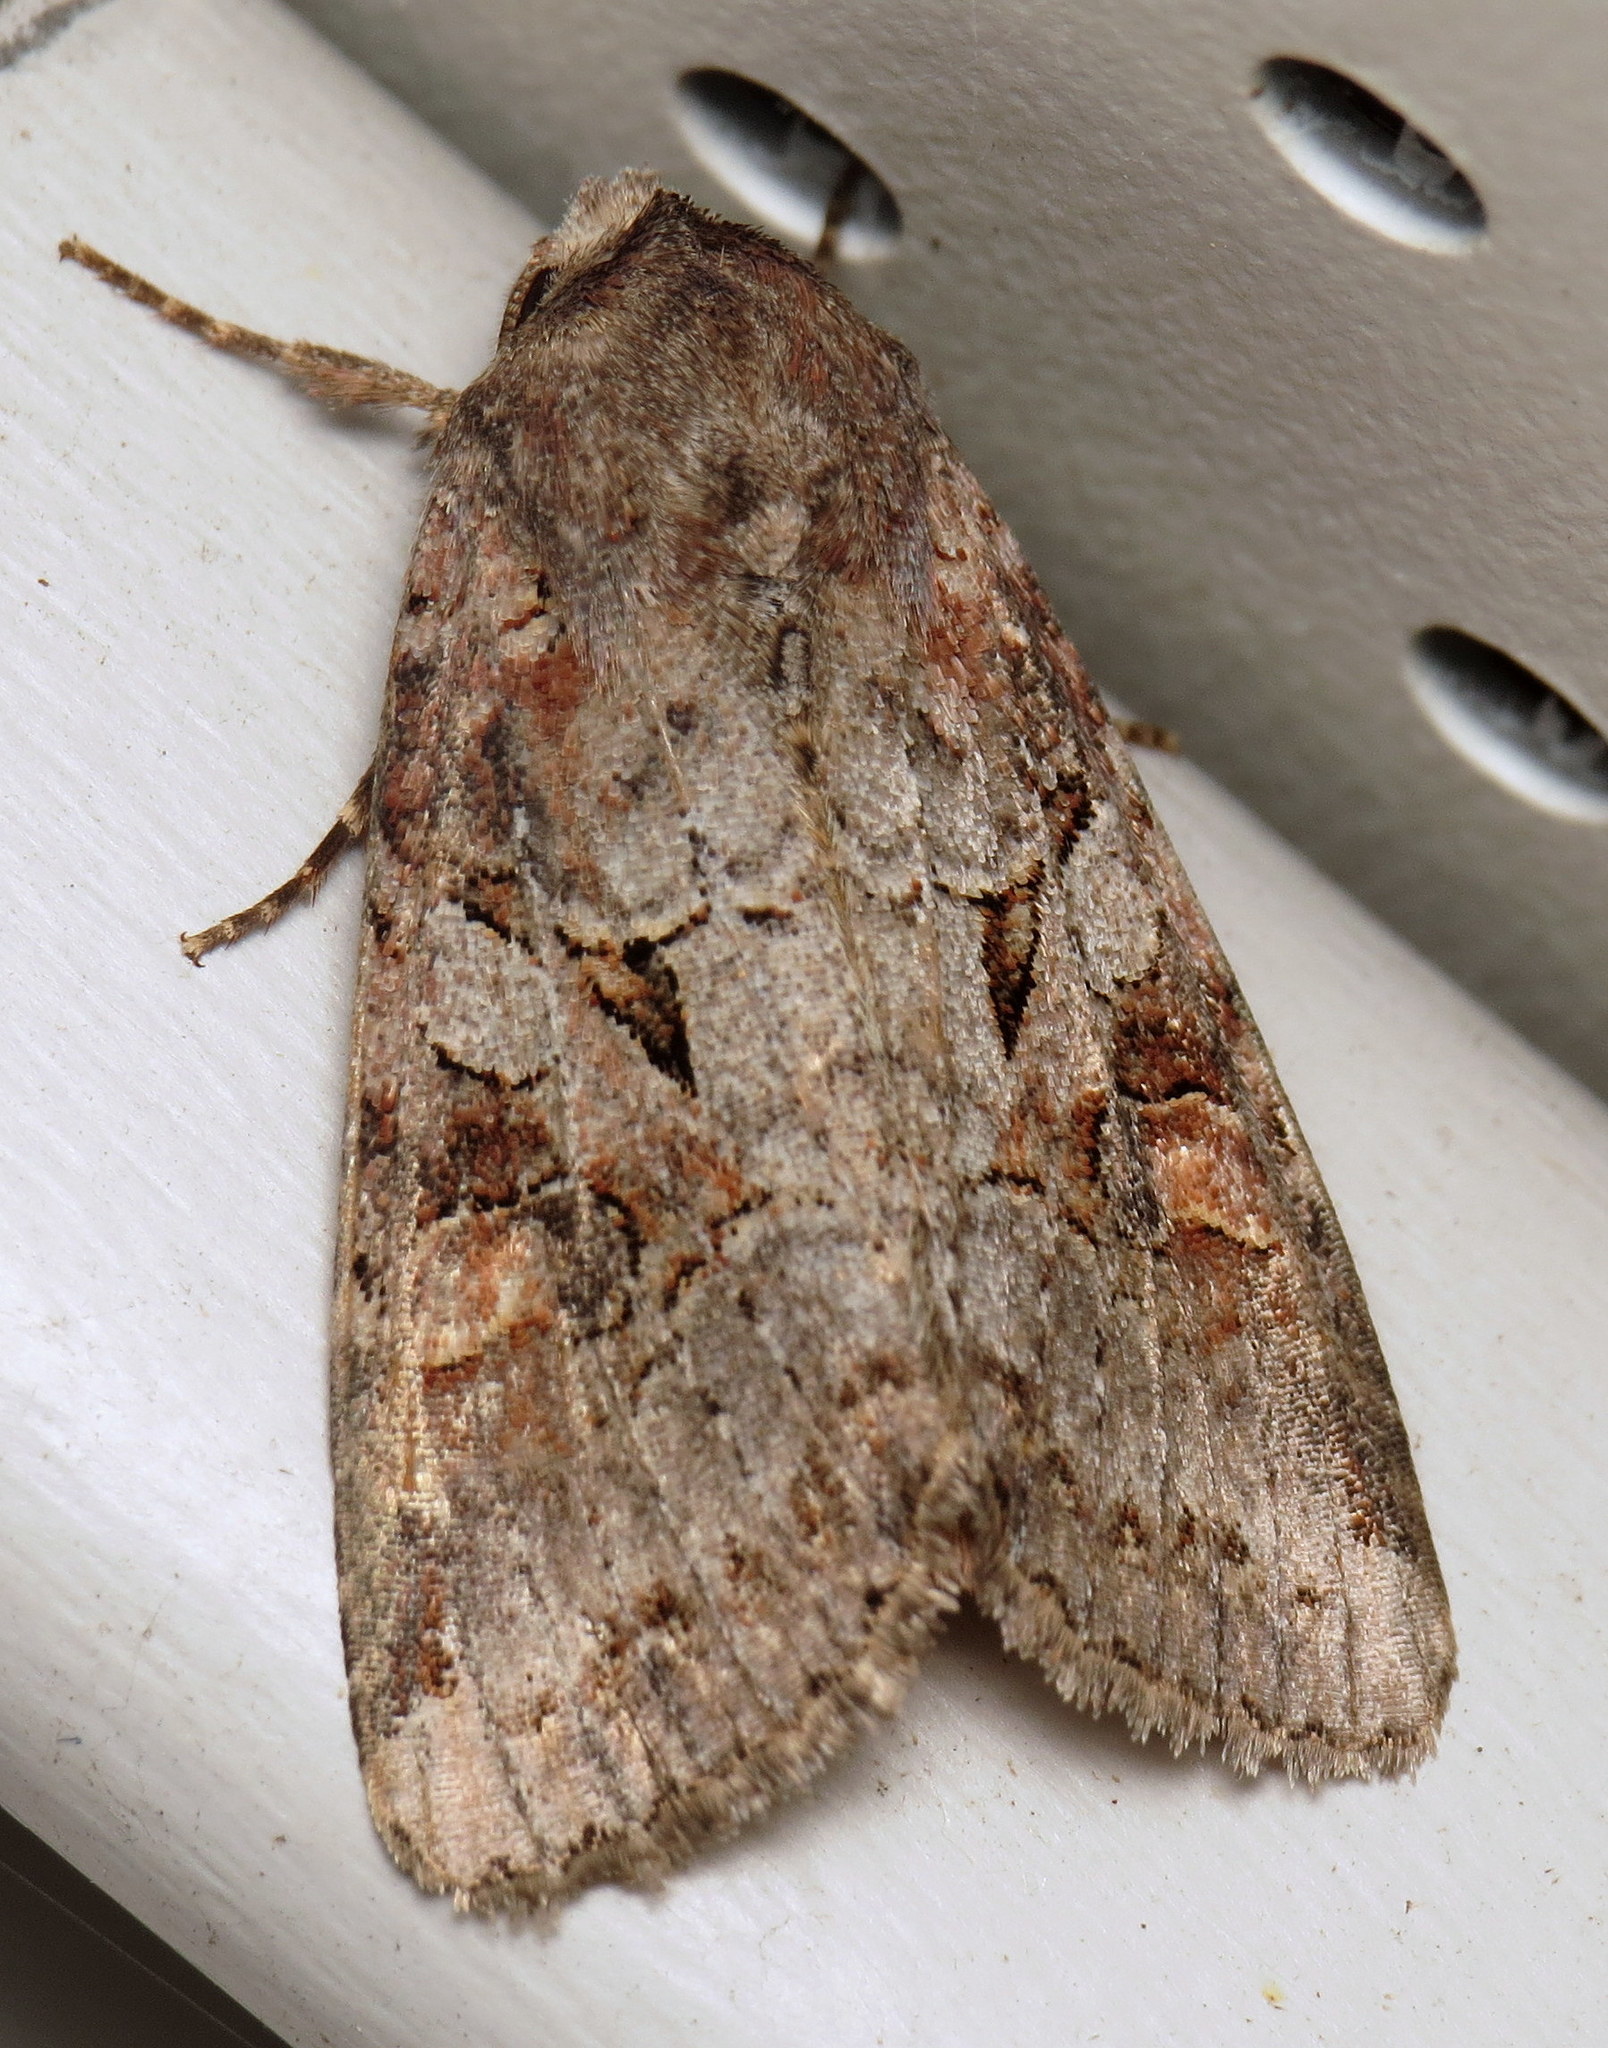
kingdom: Animalia
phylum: Arthropoda
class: Insecta
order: Lepidoptera
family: Noctuidae
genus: Trichordestra
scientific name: Trichordestra legitima
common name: Striped garden caterpillar
